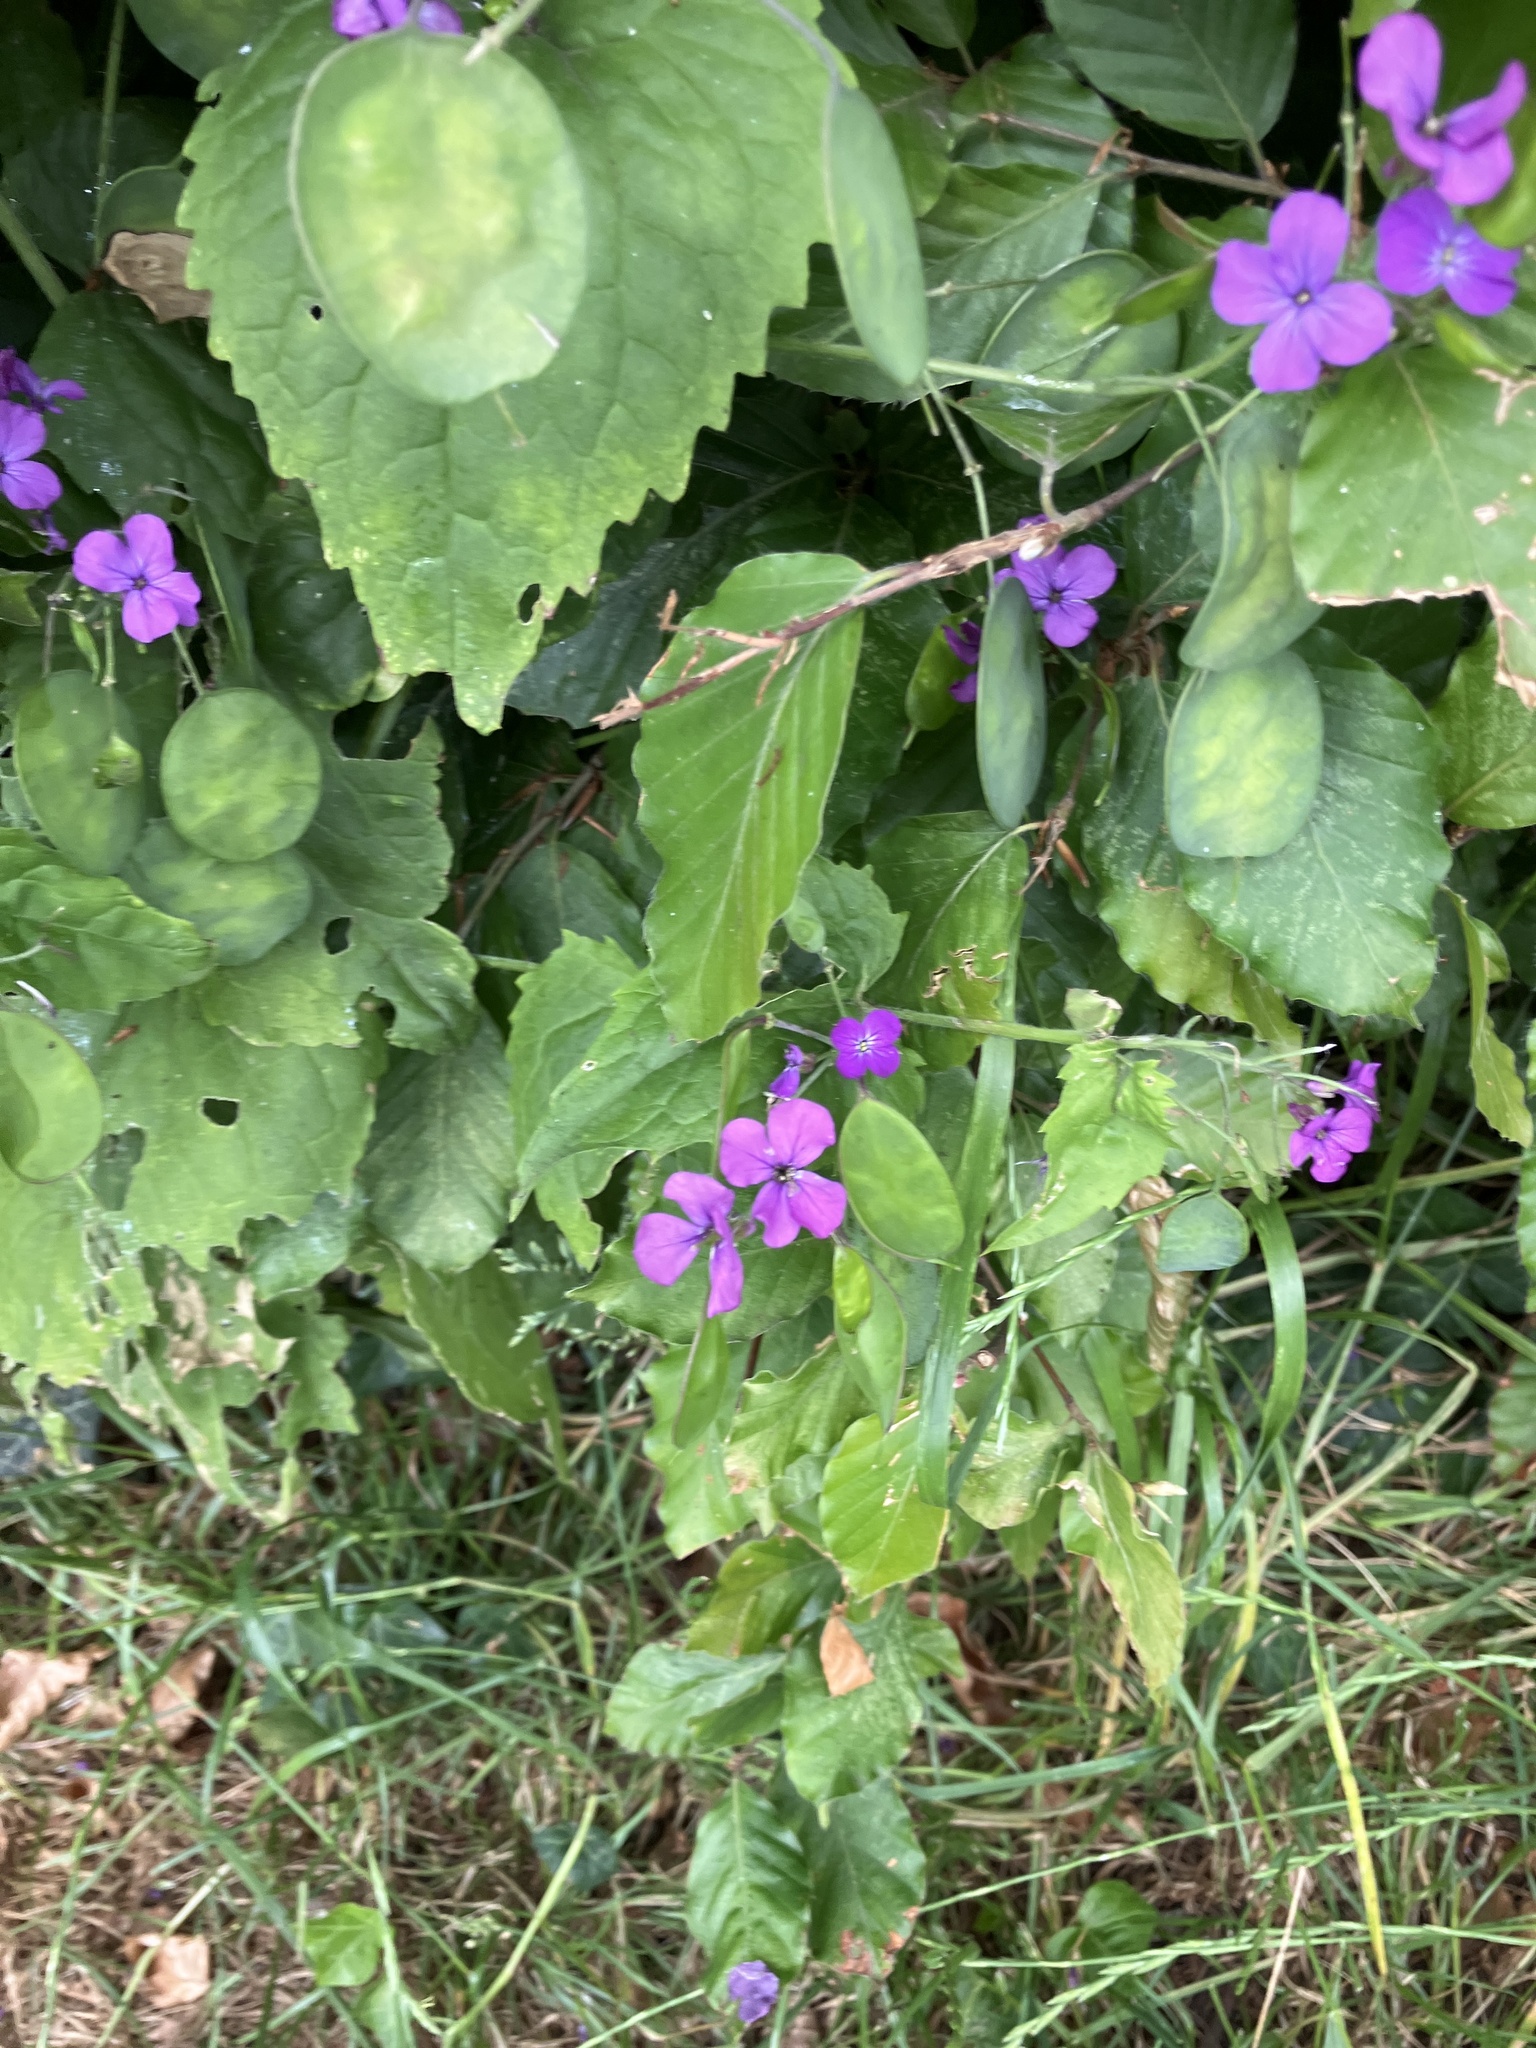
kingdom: Plantae
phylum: Tracheophyta
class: Magnoliopsida
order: Brassicales
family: Brassicaceae
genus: Lunaria
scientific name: Lunaria annua
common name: Honesty
